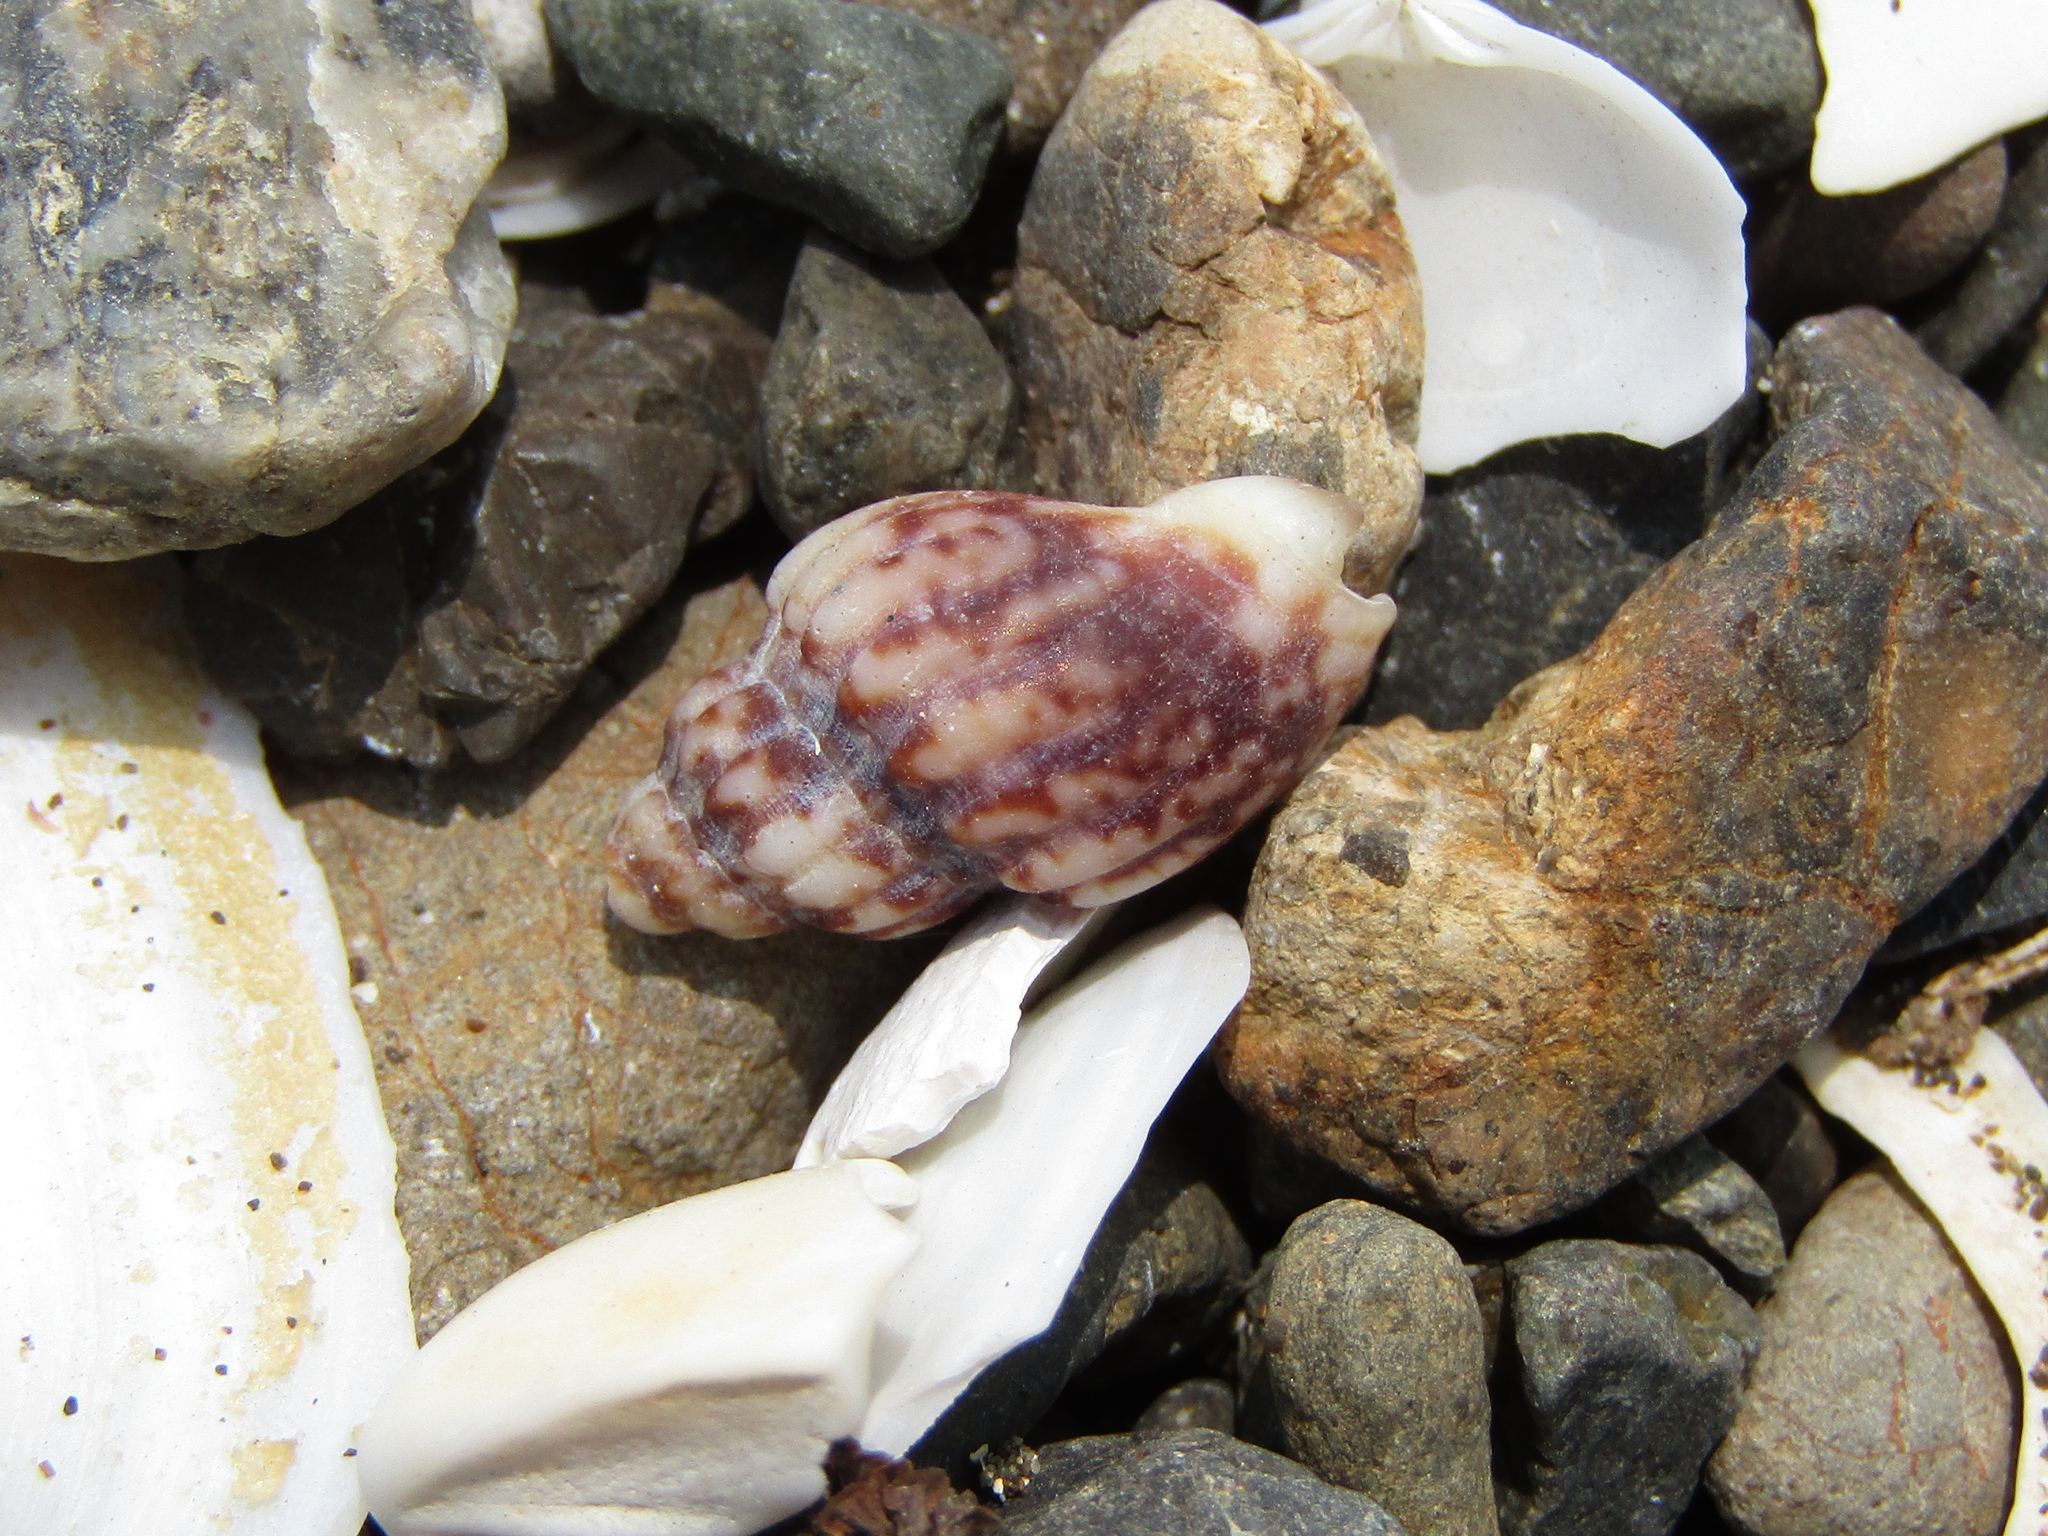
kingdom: Animalia
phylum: Mollusca
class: Gastropoda
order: Neogastropoda
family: Cominellidae
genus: Cominella
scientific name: Cominella quoyana
